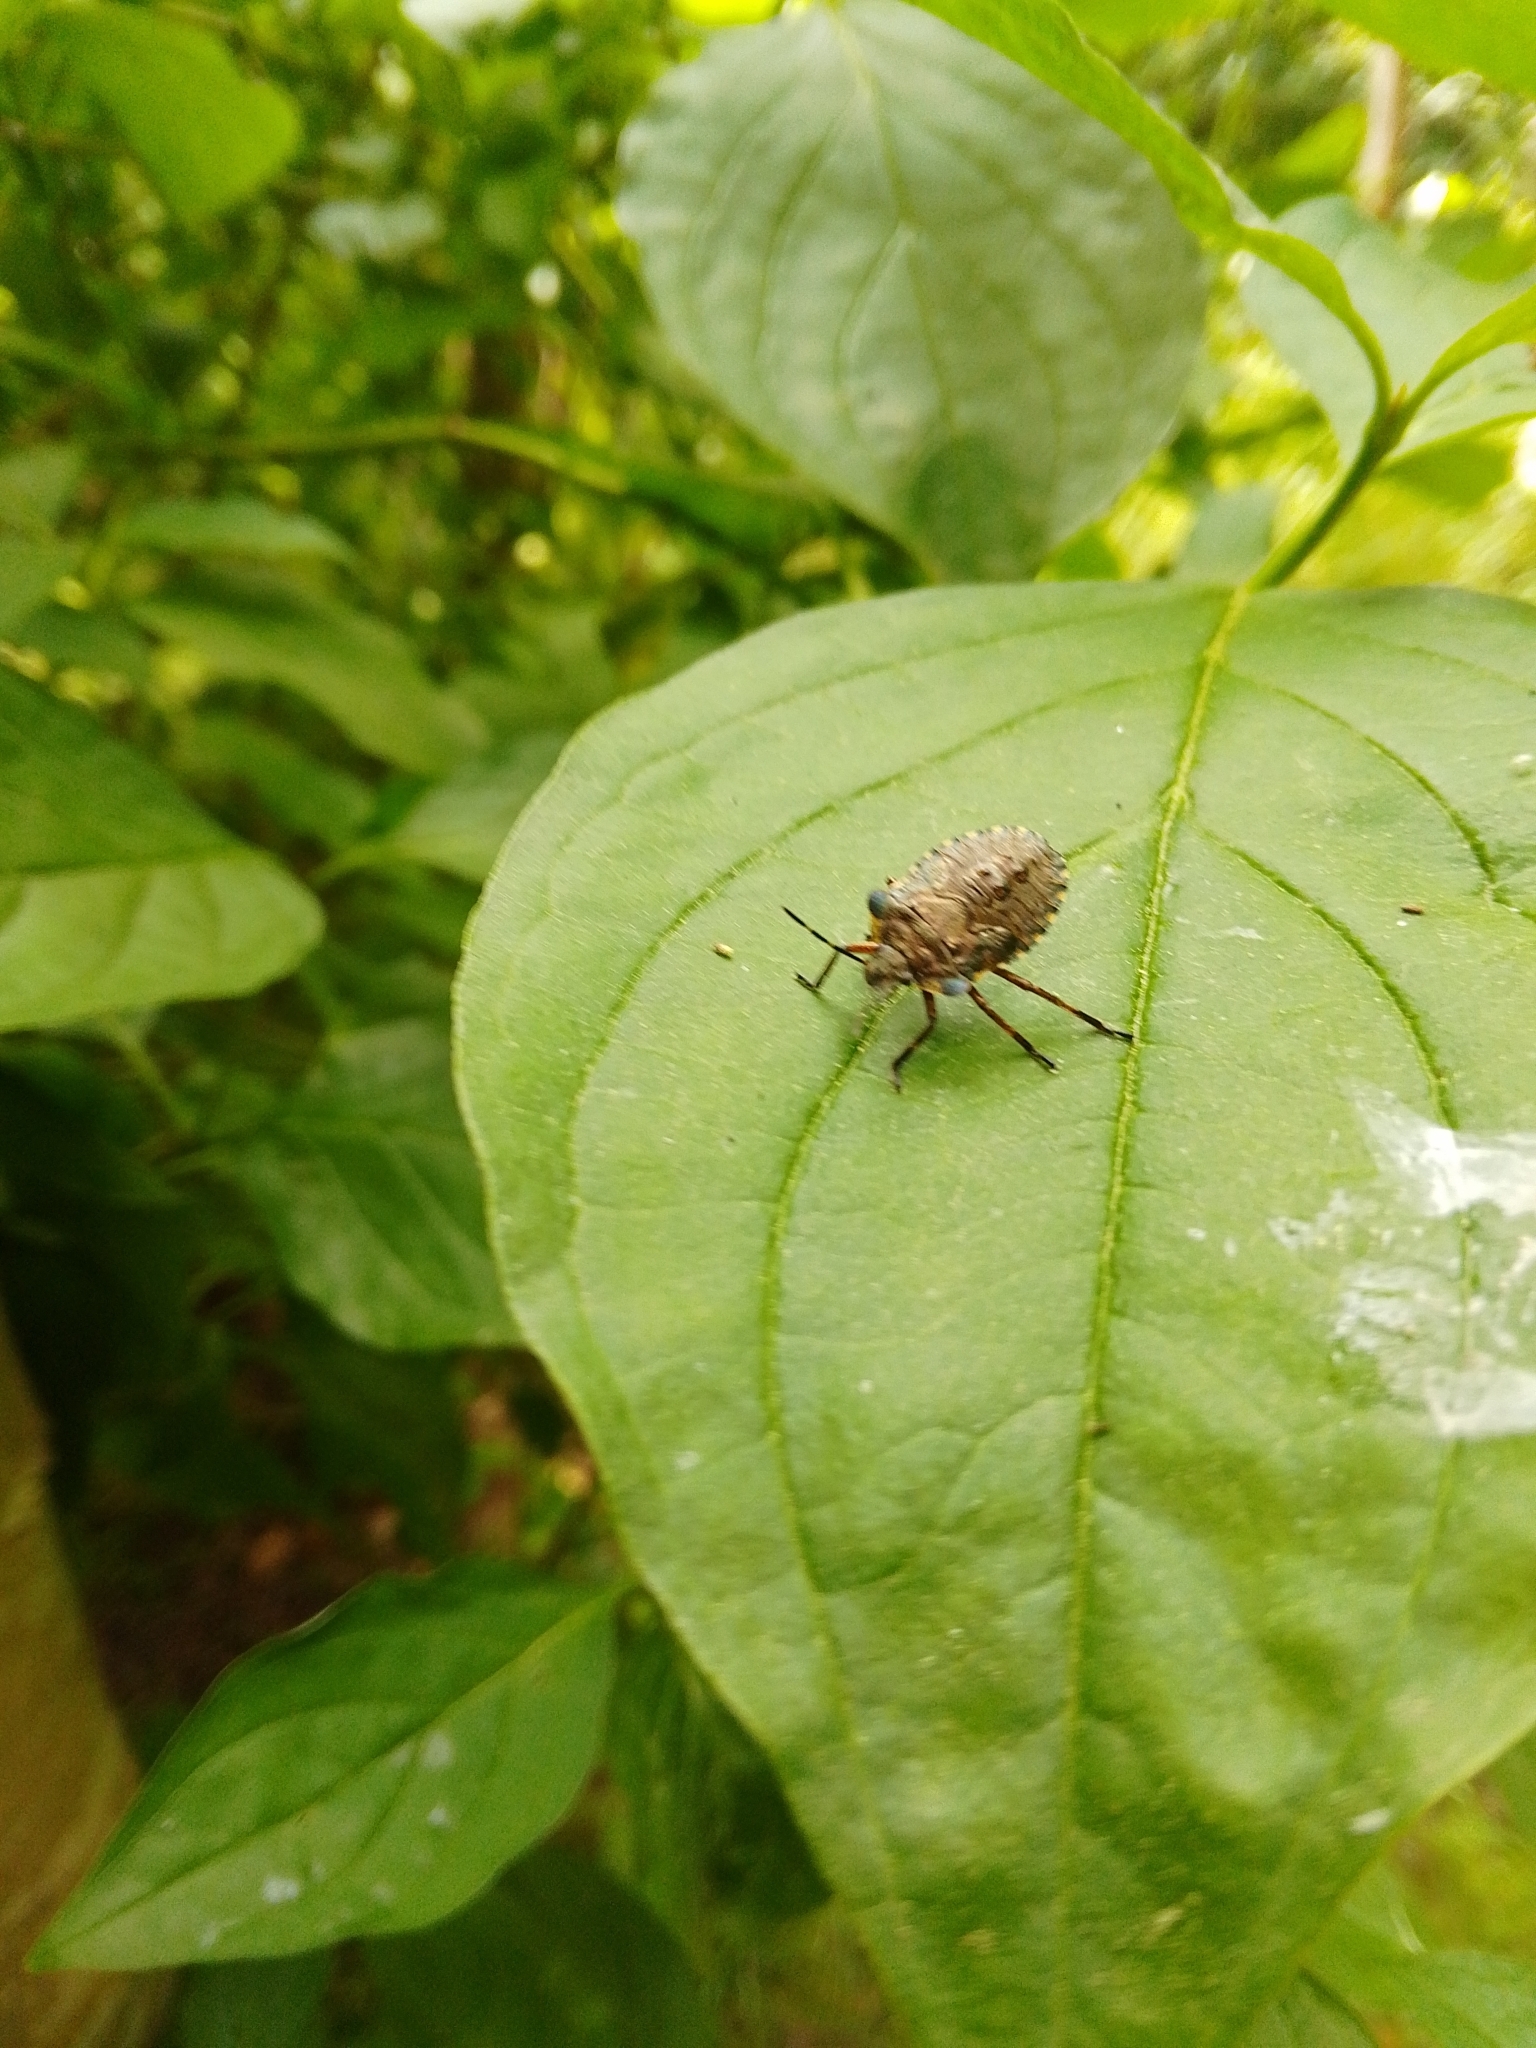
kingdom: Animalia
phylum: Arthropoda
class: Insecta
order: Hemiptera
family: Pentatomidae
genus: Pentatoma
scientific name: Pentatoma rufipes
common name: Forest bug
